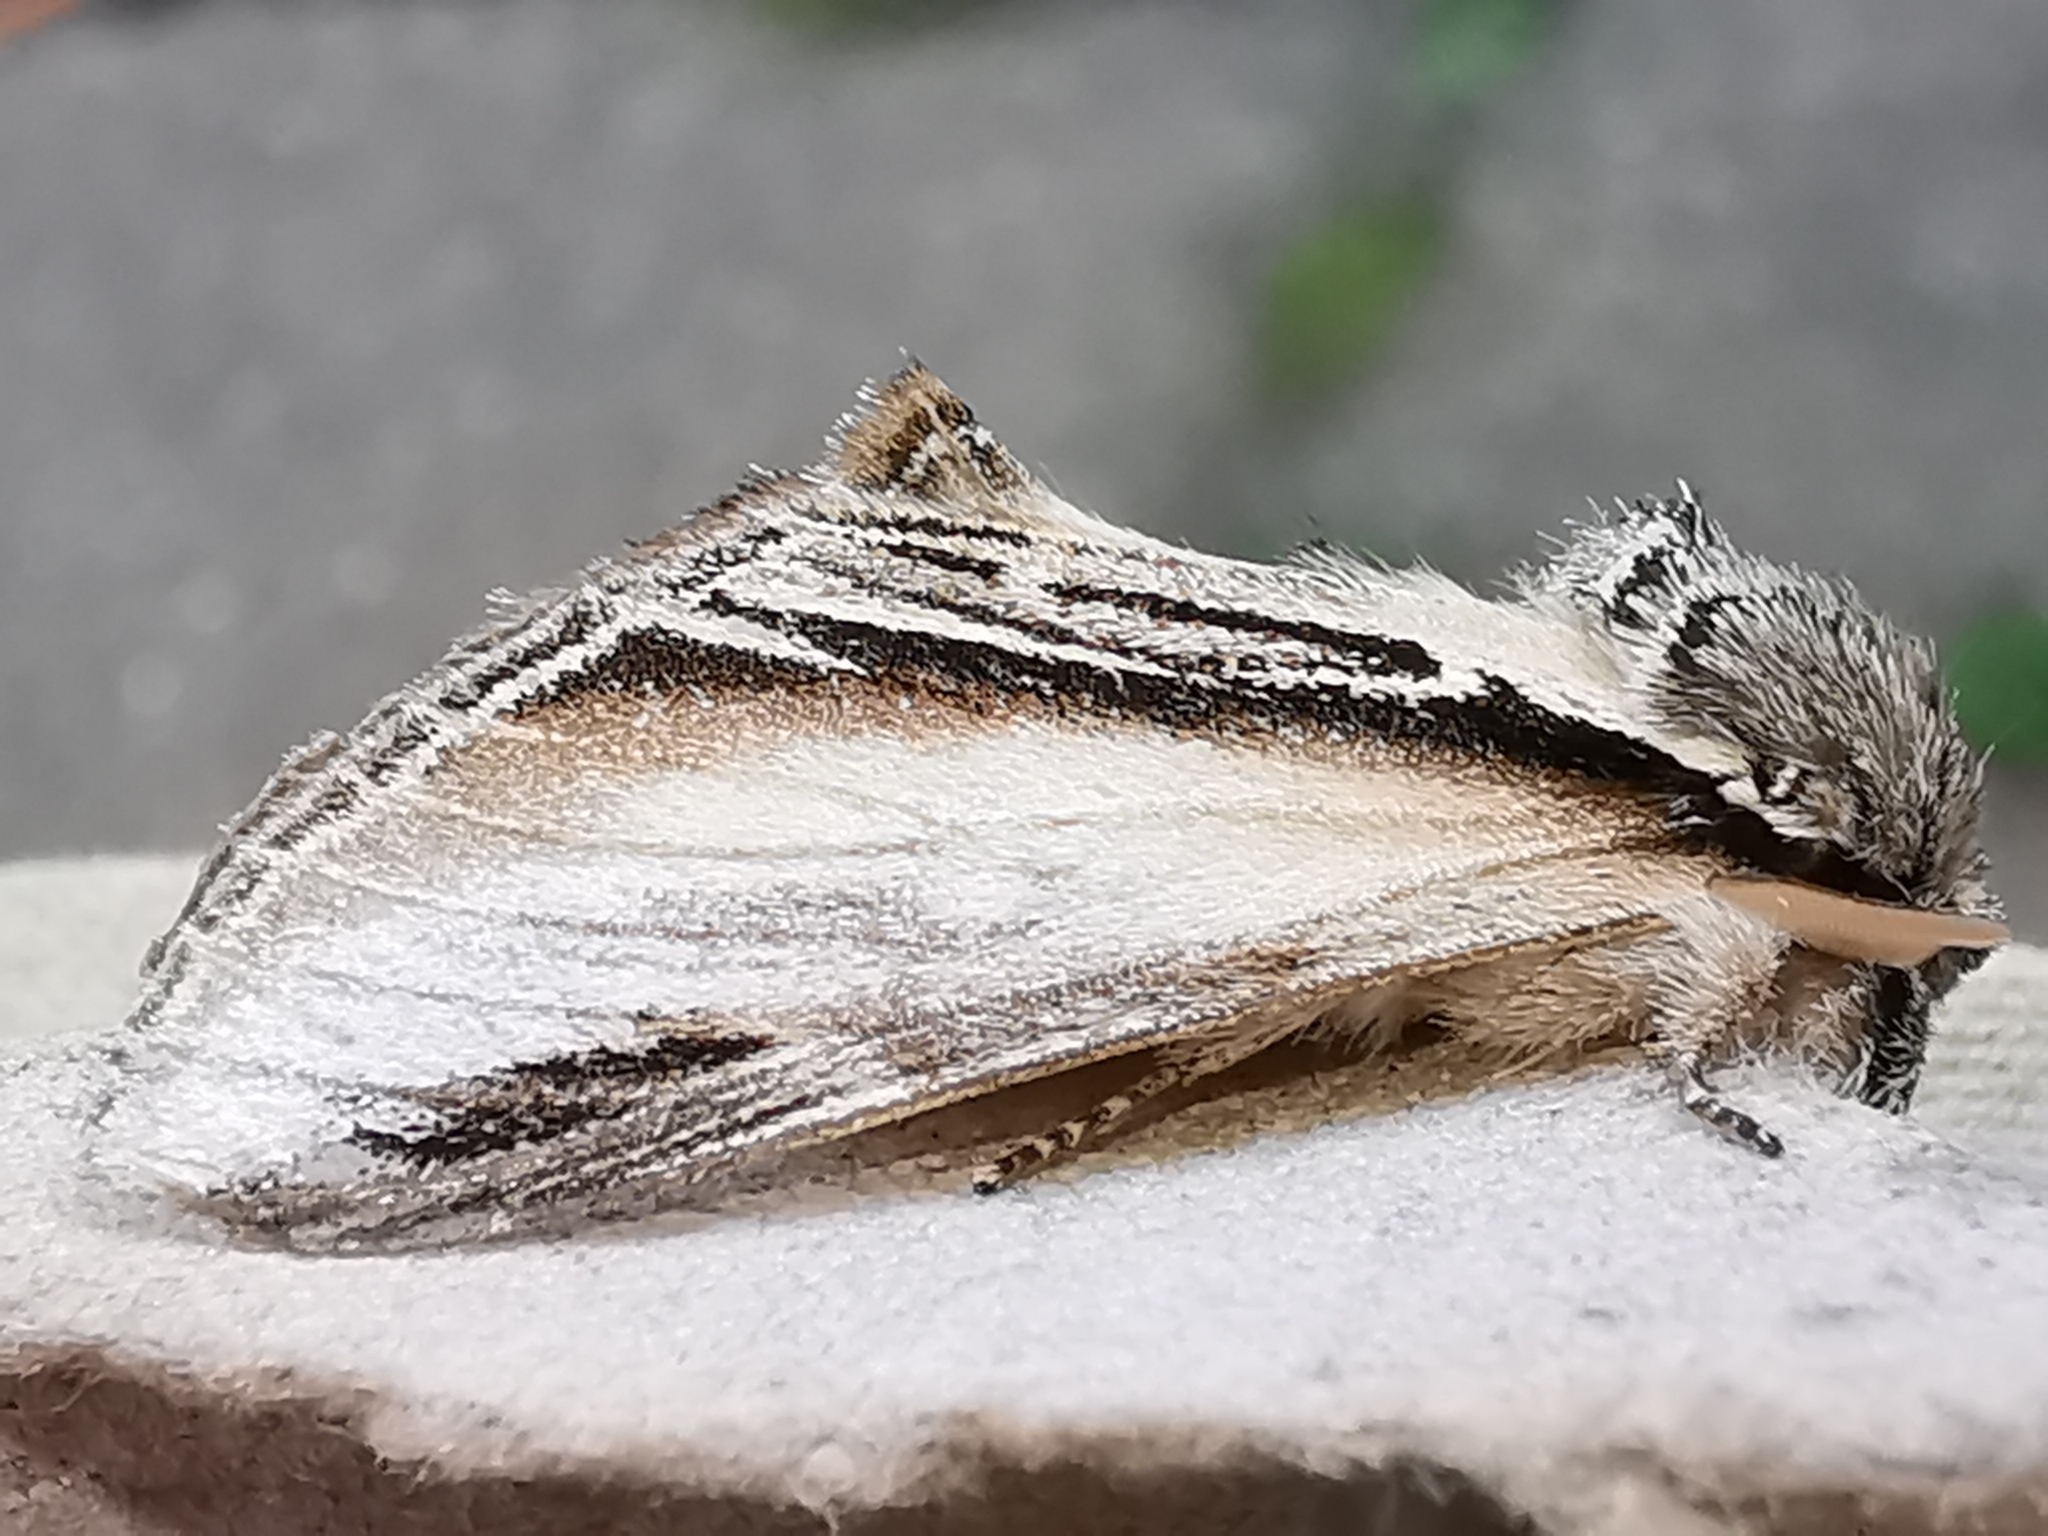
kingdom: Animalia
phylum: Arthropoda
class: Insecta
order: Lepidoptera
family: Notodontidae
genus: Pheosia
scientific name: Pheosia tremula
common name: Swallow prominent
